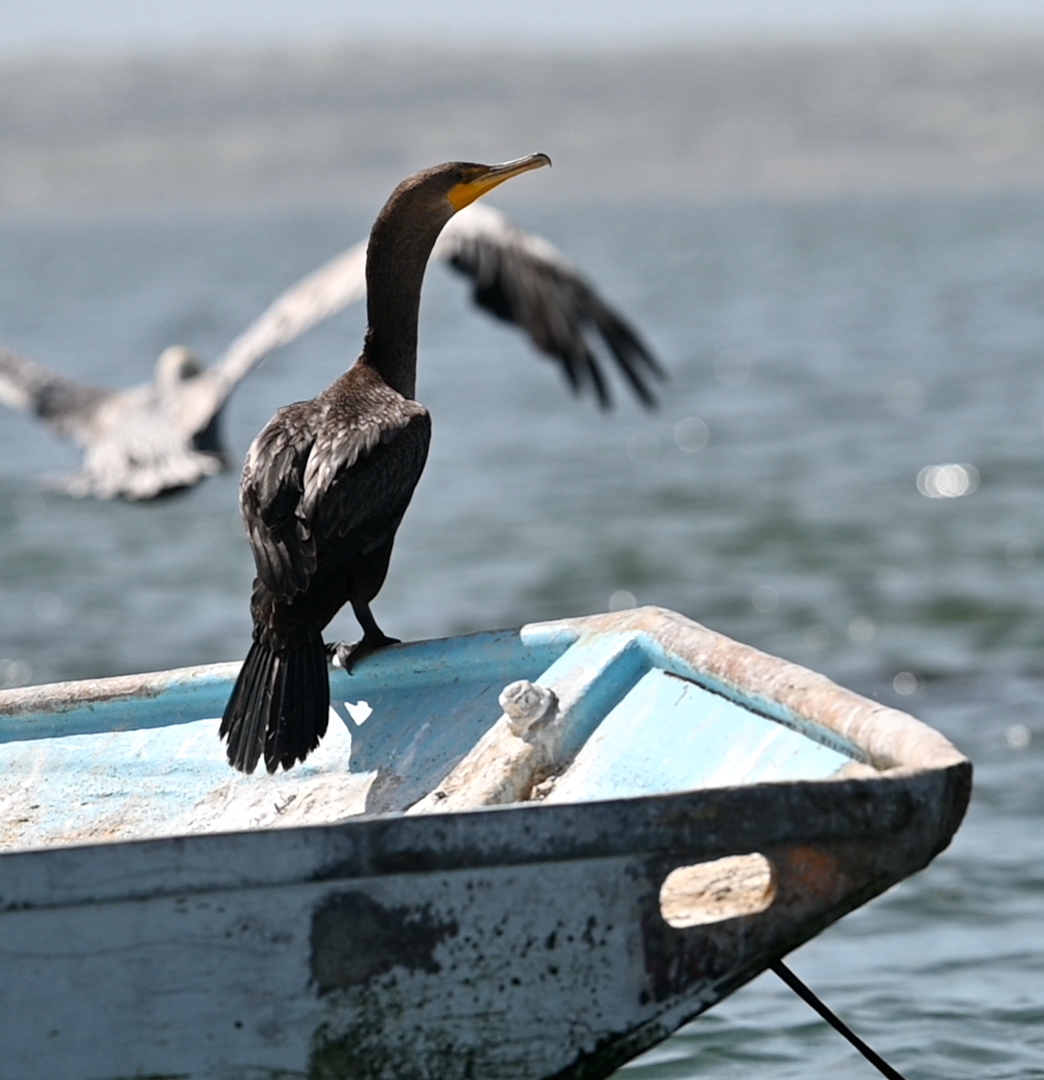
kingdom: Animalia
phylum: Chordata
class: Aves
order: Suliformes
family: Phalacrocoracidae
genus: Phalacrocorax
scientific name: Phalacrocorax auritus
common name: Double-crested cormorant
